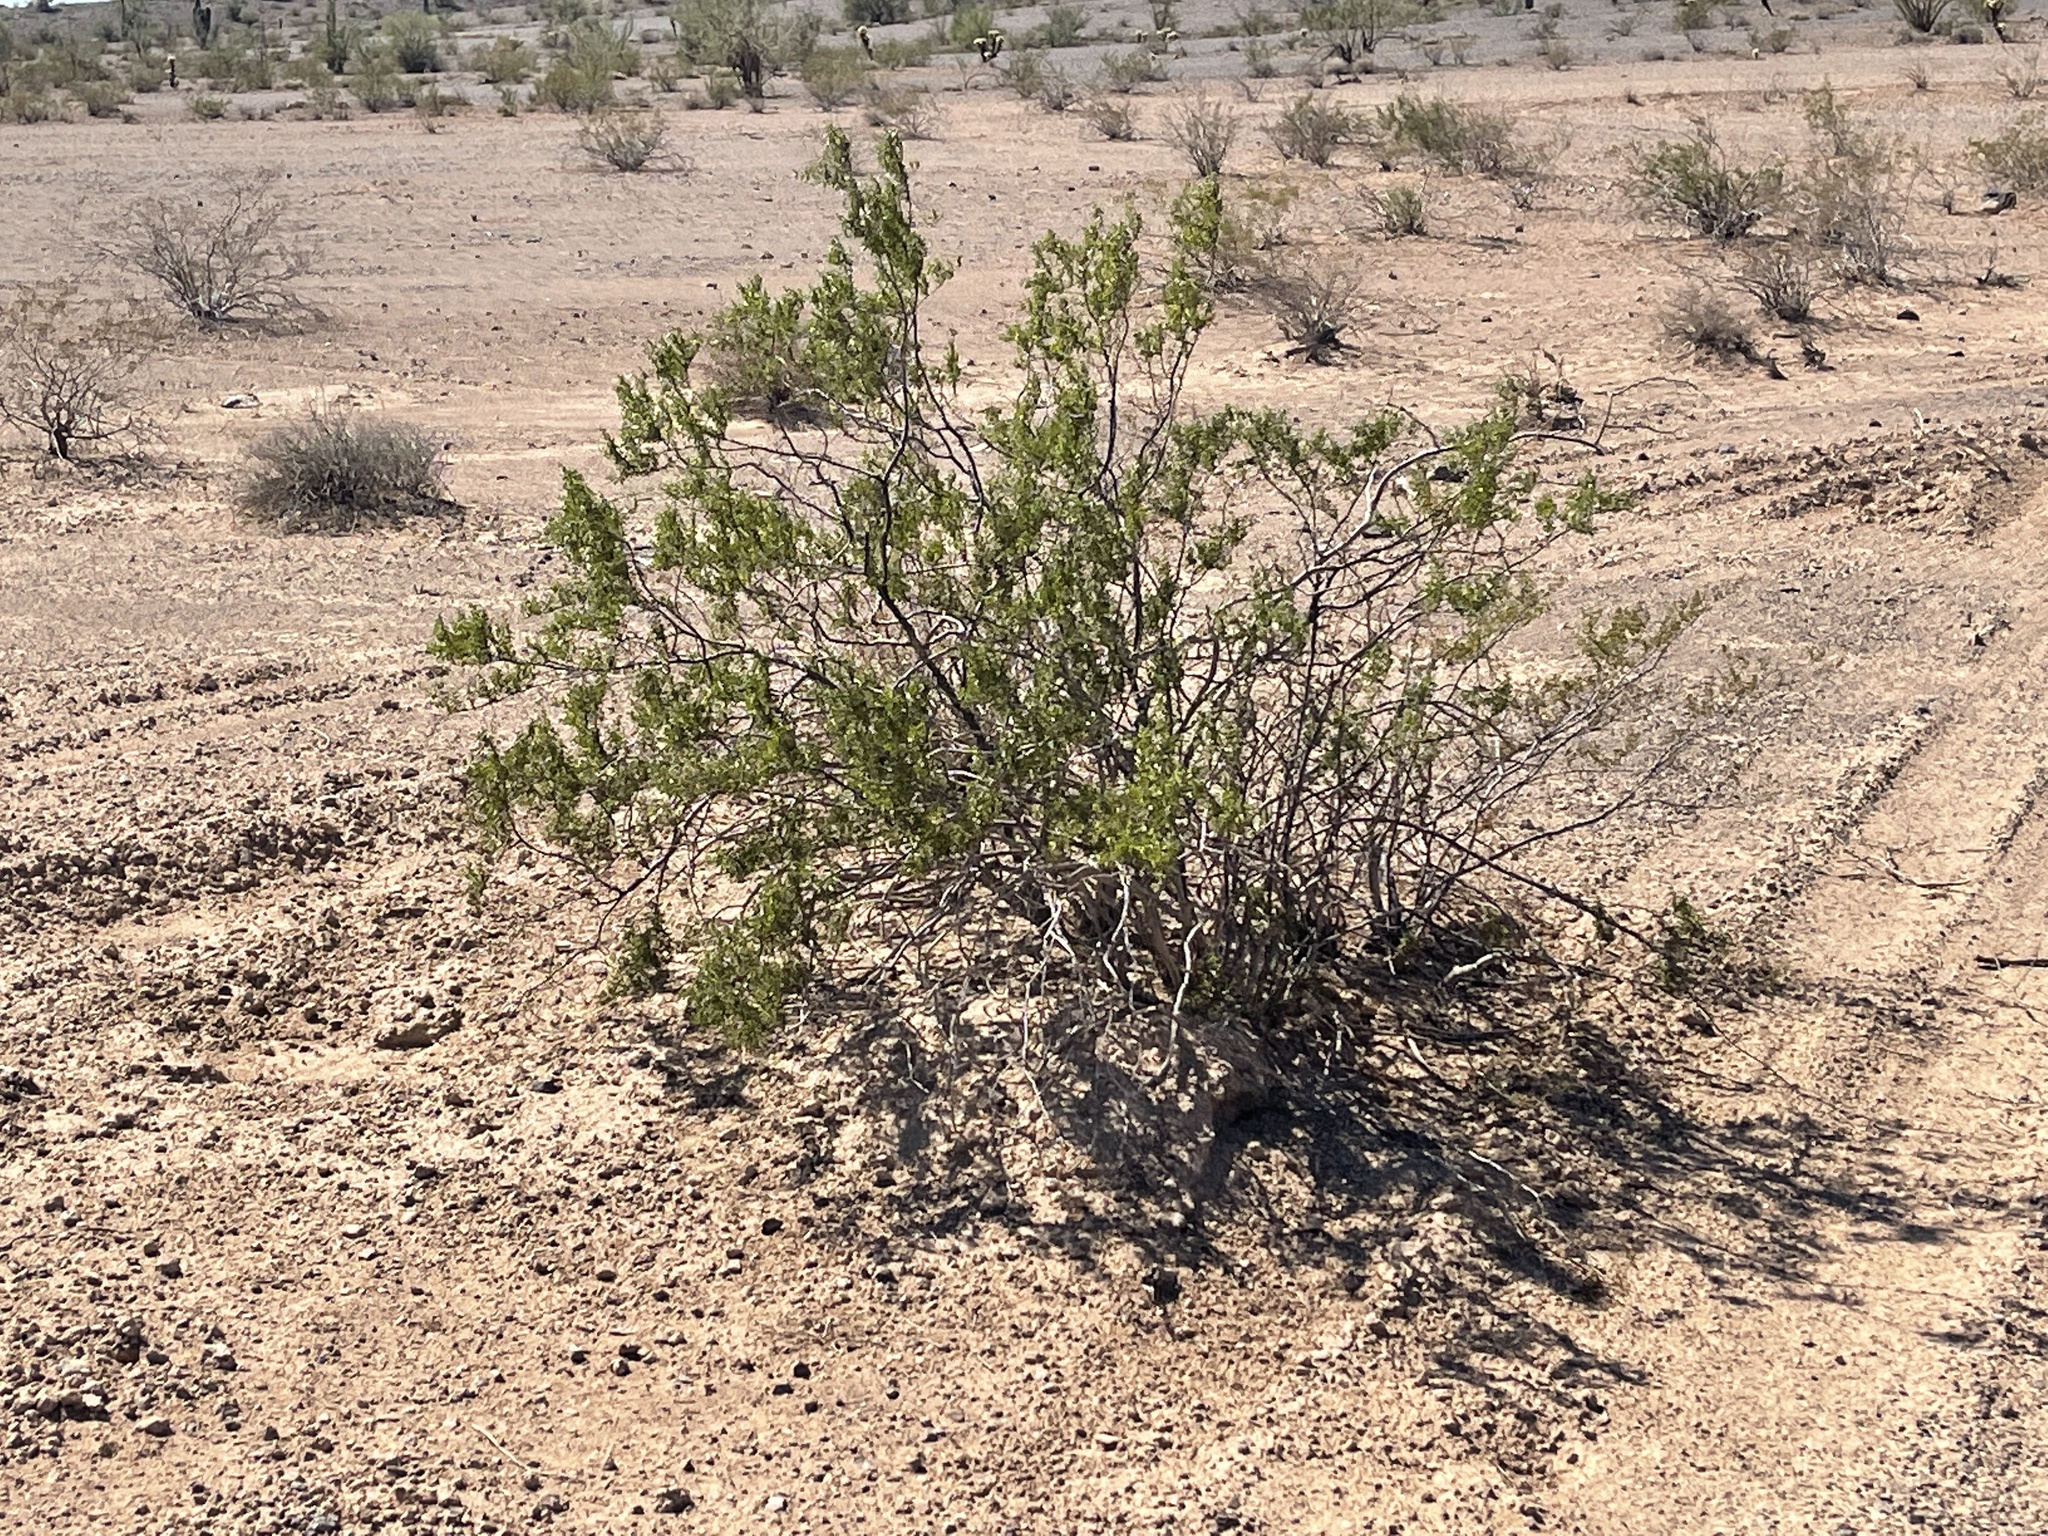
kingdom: Plantae
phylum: Tracheophyta
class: Magnoliopsida
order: Zygophyllales
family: Zygophyllaceae
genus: Larrea
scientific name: Larrea tridentata
